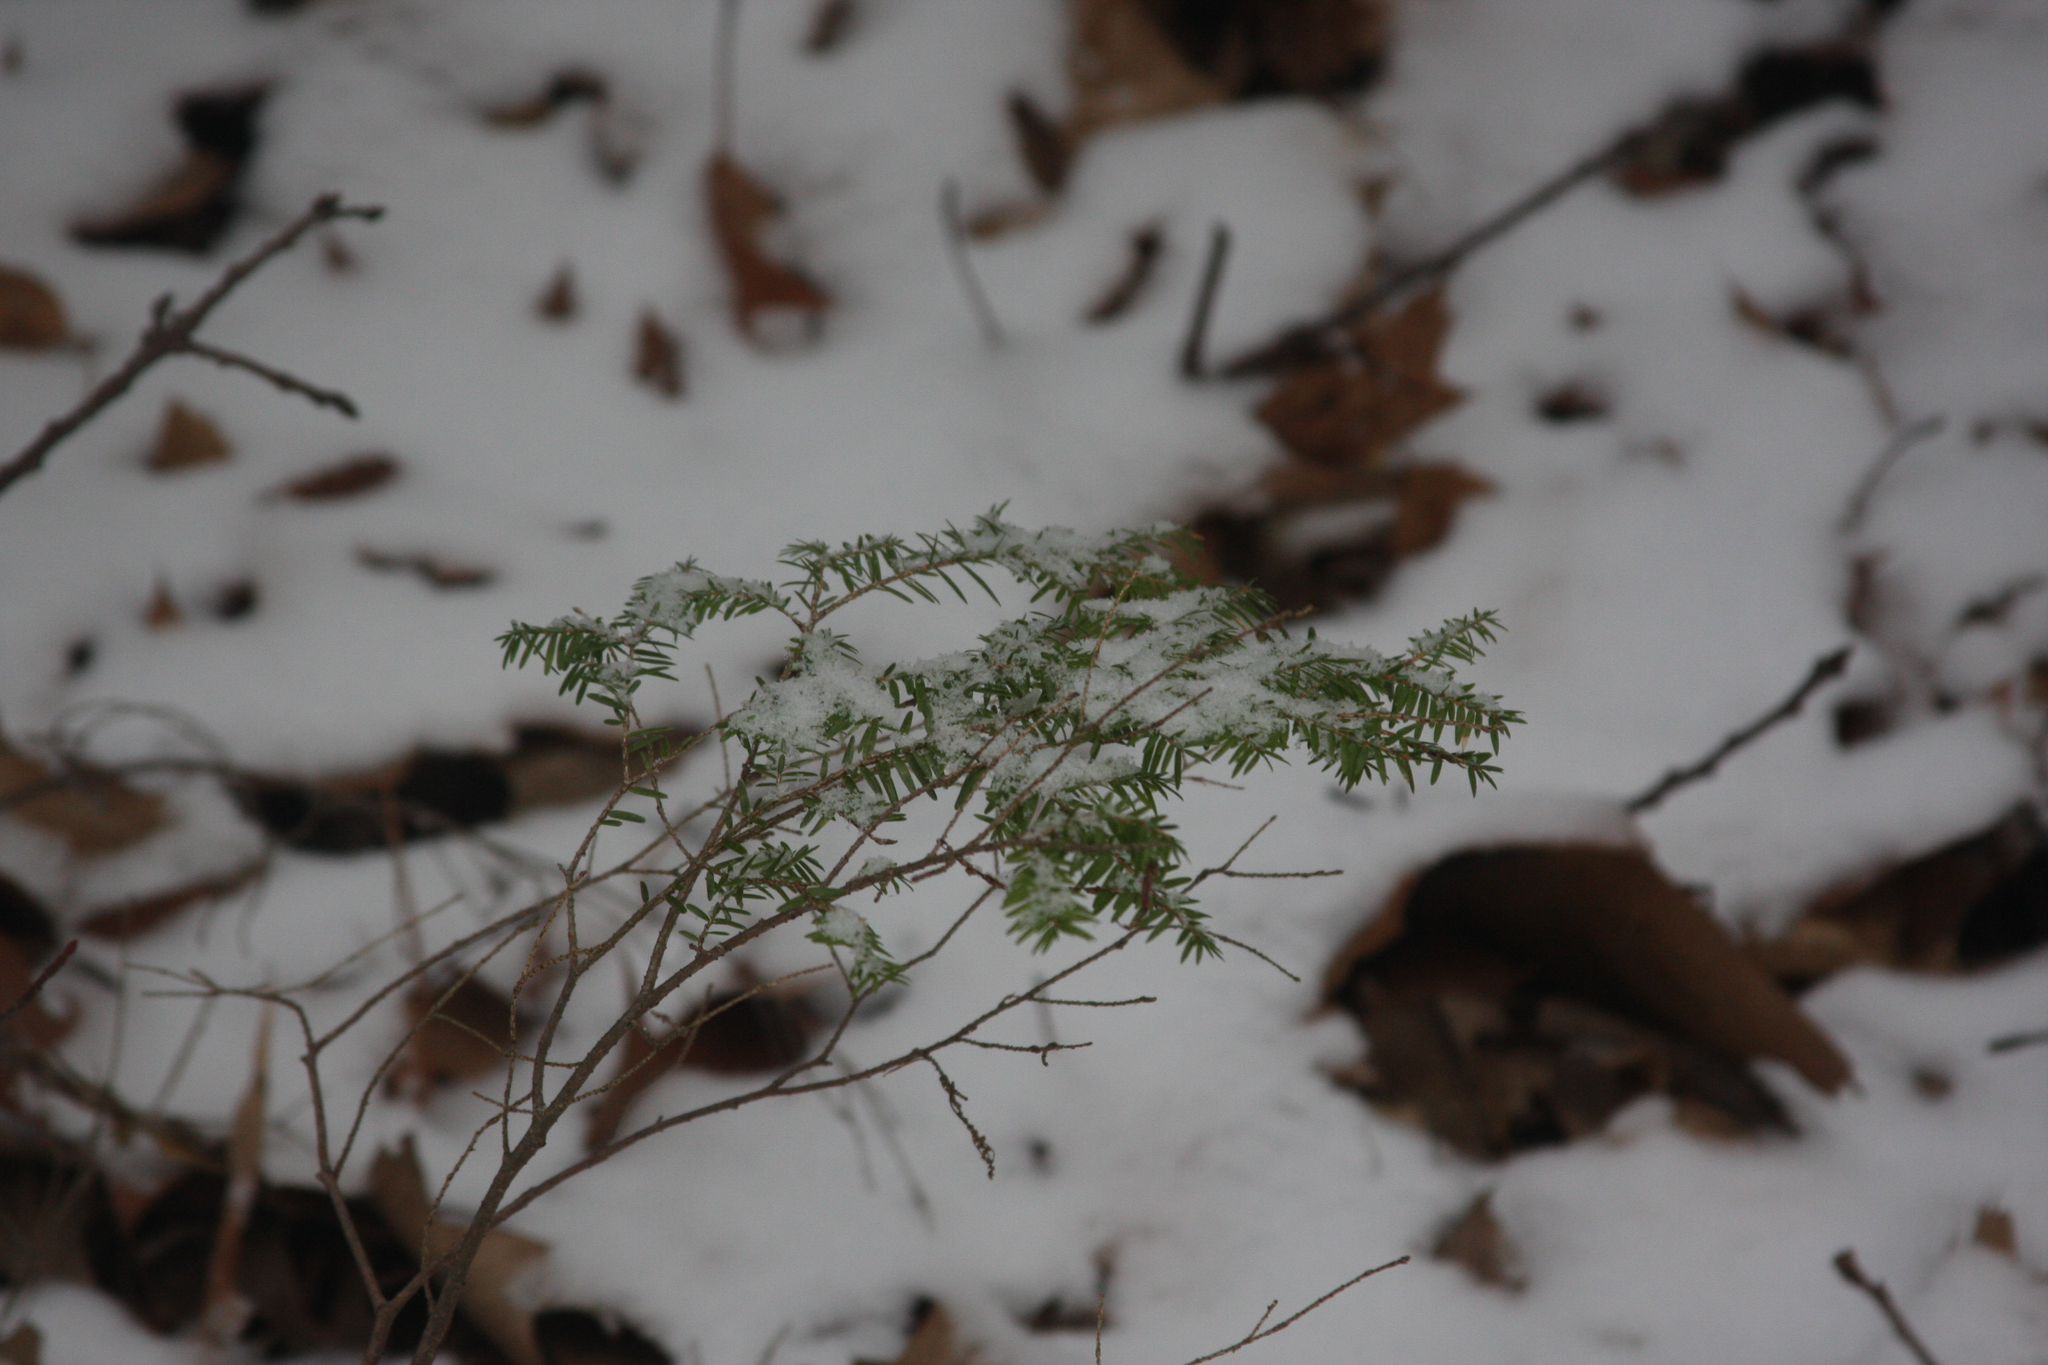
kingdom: Plantae
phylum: Tracheophyta
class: Pinopsida
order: Pinales
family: Pinaceae
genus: Tsuga
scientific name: Tsuga canadensis
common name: Eastern hemlock
